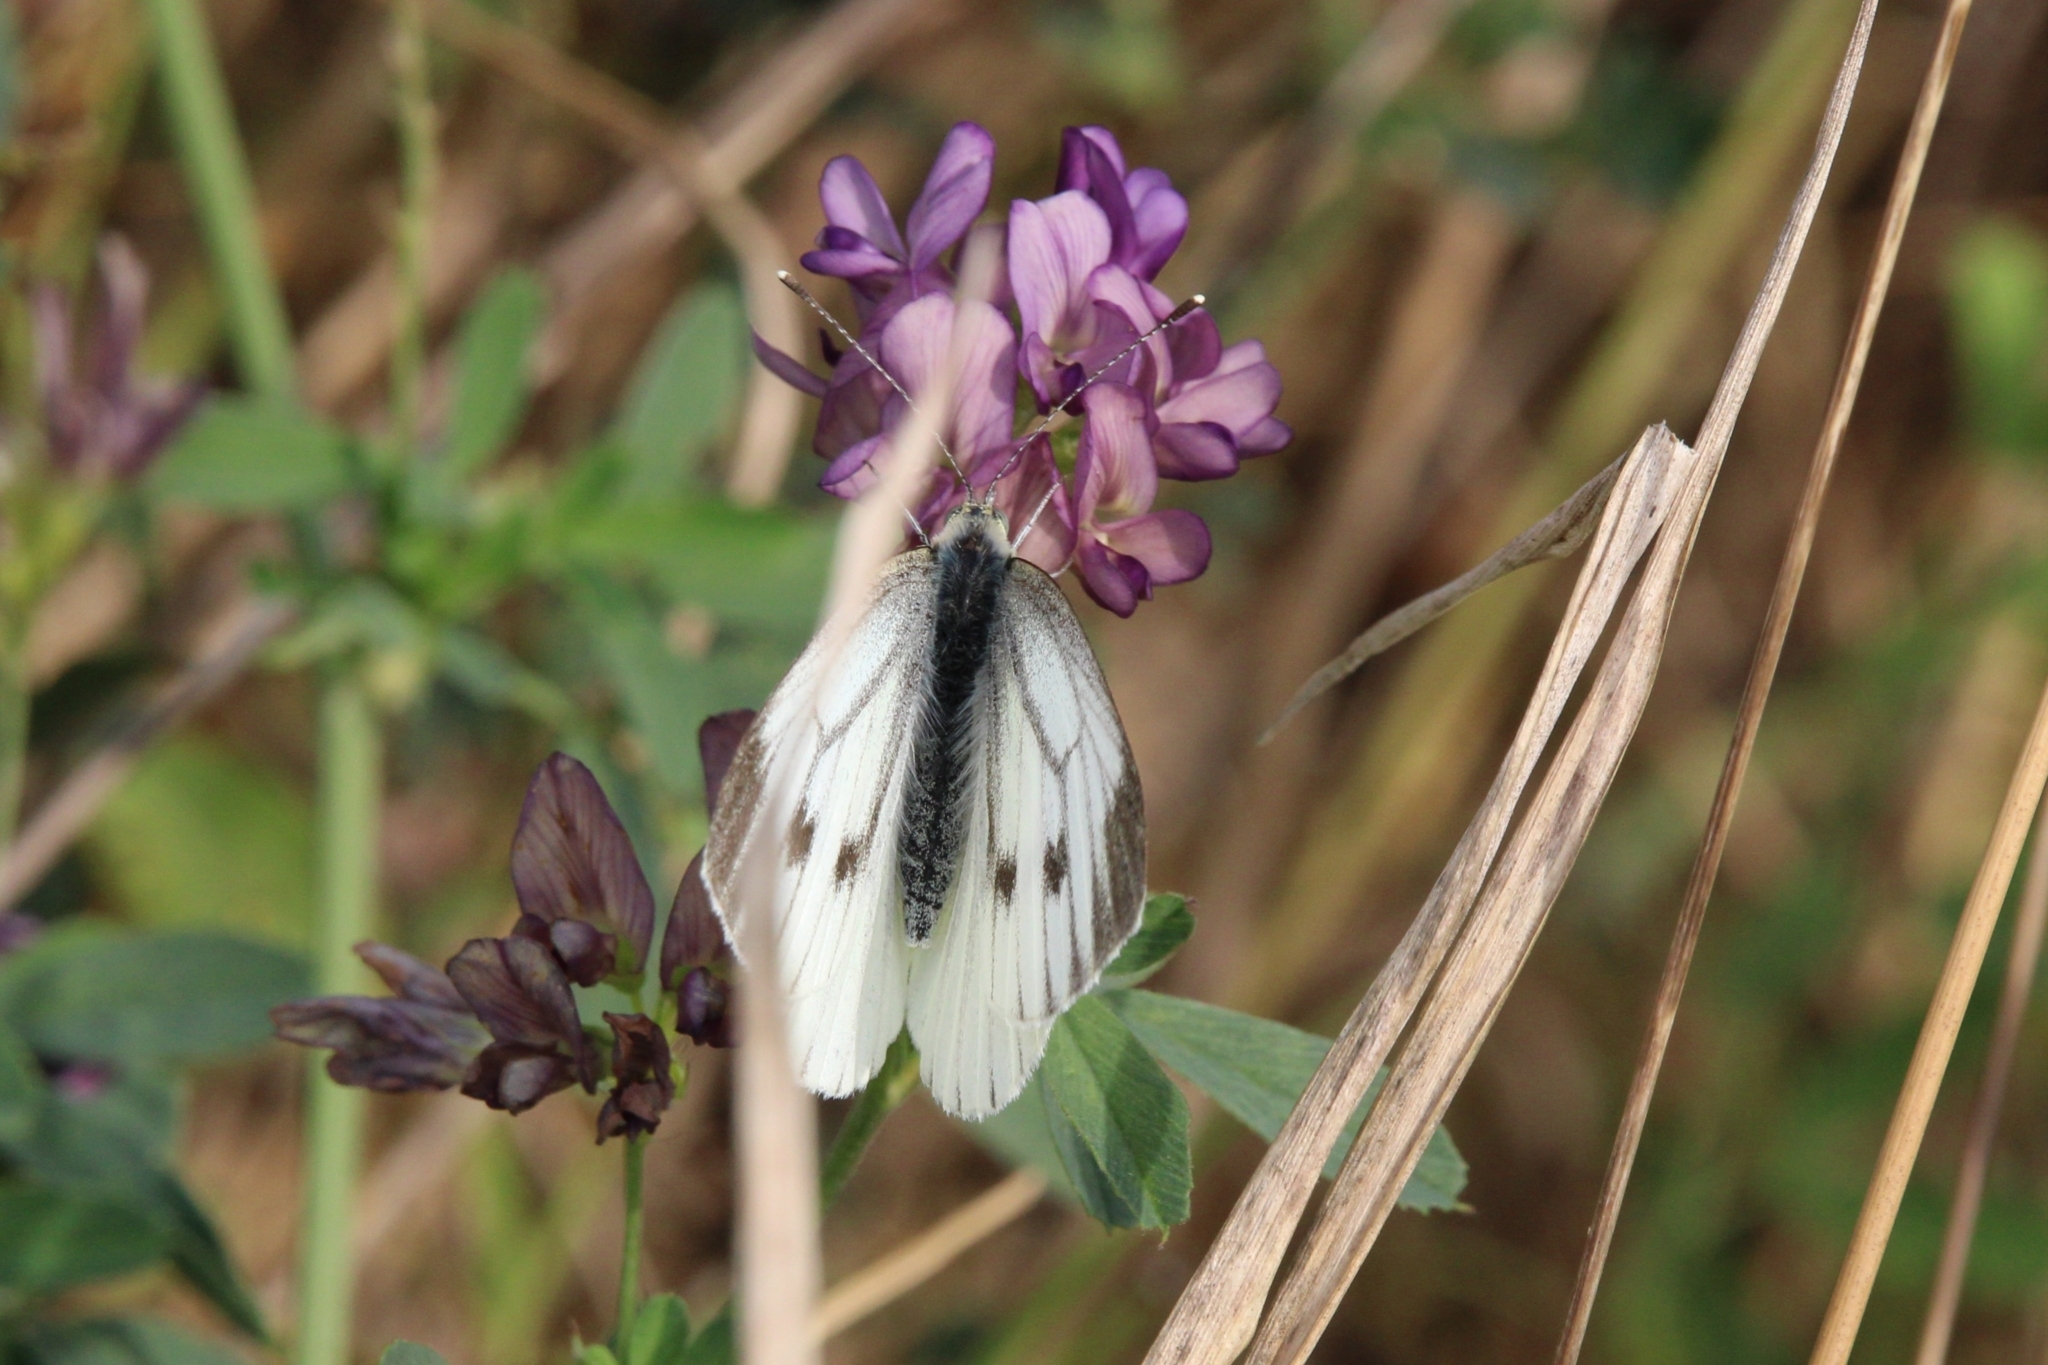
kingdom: Animalia
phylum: Arthropoda
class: Insecta
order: Lepidoptera
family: Pieridae
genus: Pieris
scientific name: Pieris napi
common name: Green-veined white
